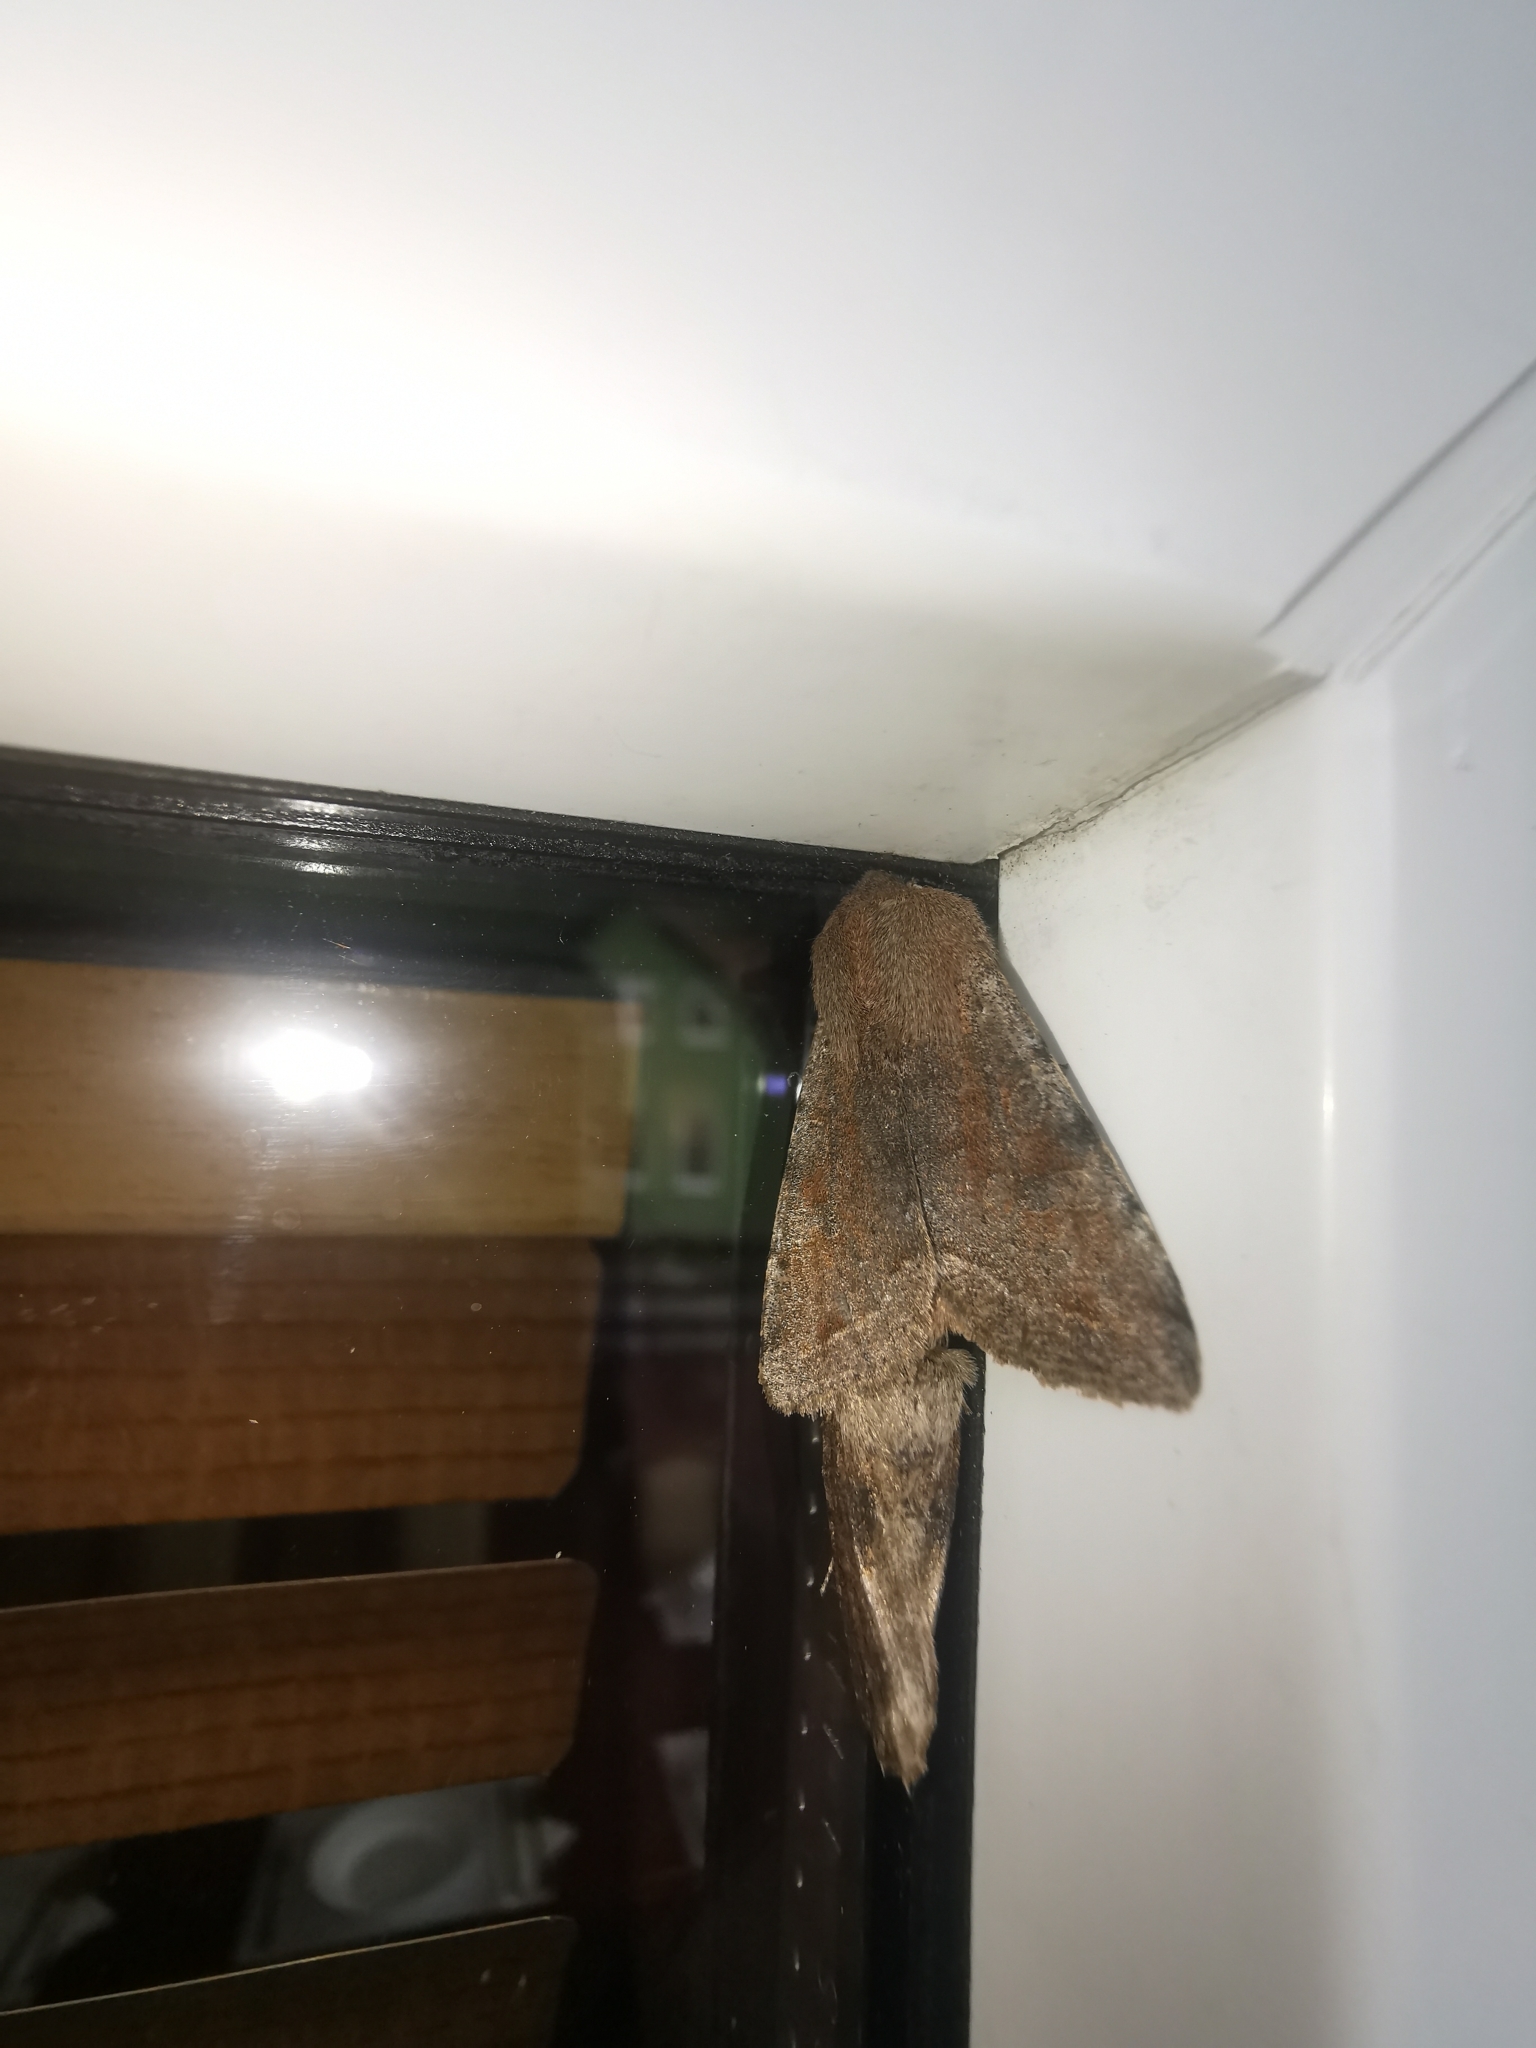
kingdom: Animalia
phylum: Arthropoda
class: Insecta
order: Lepidoptera
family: Noctuidae
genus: Orthosia
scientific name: Orthosia incerta
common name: Clouded drab
